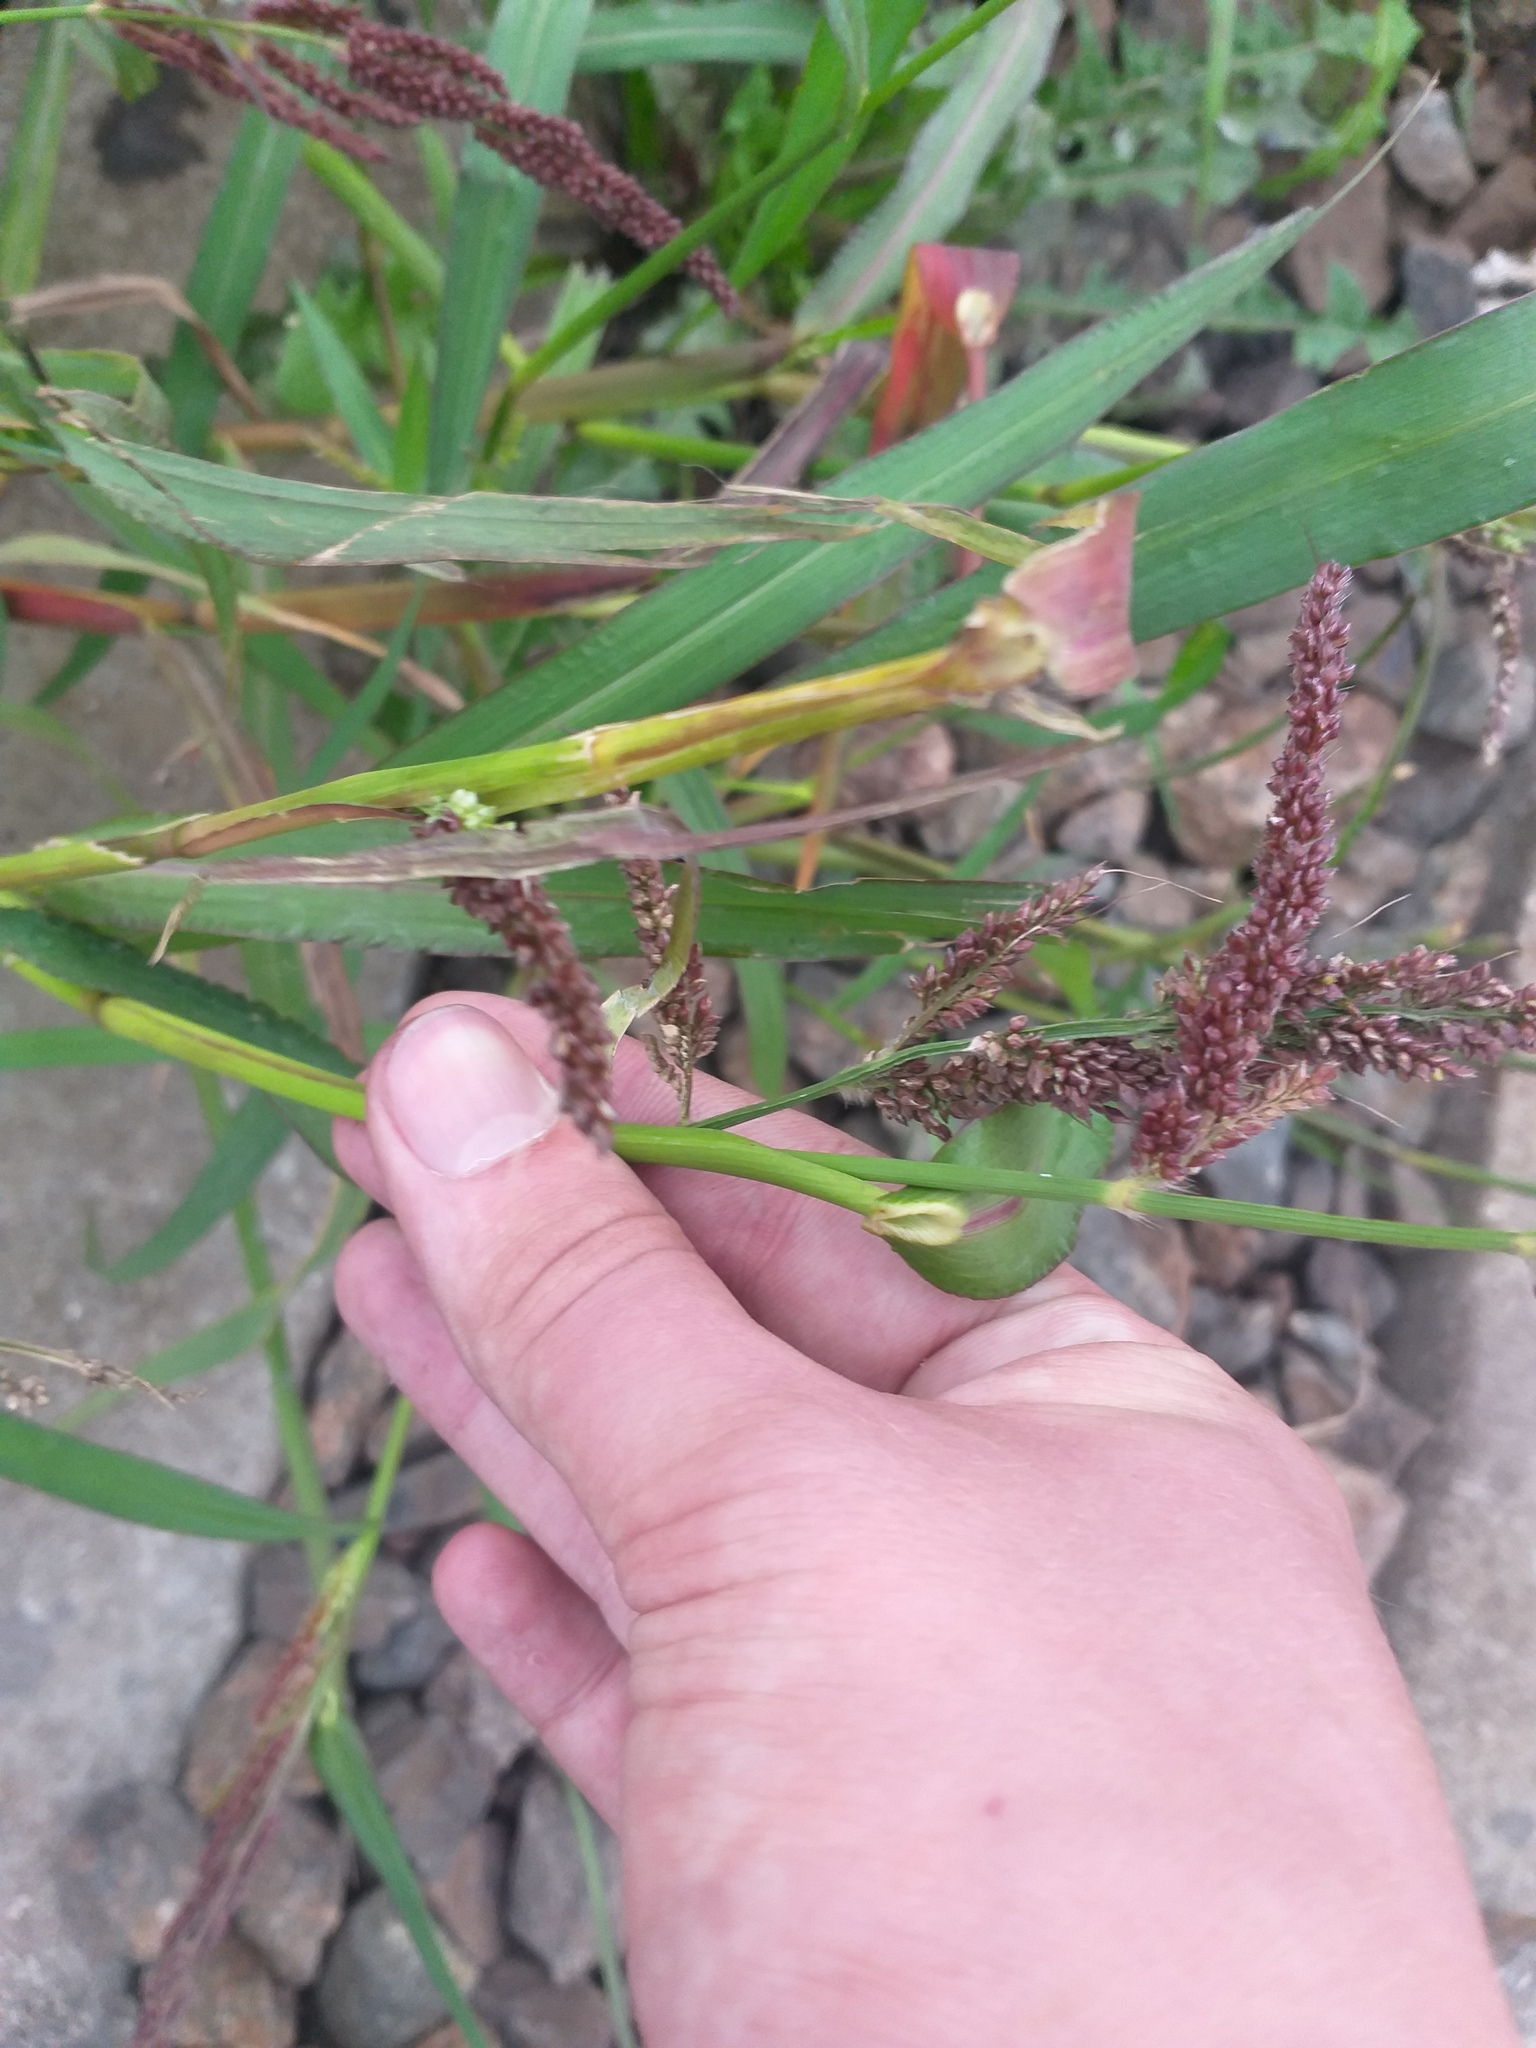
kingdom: Plantae
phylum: Tracheophyta
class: Liliopsida
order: Poales
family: Poaceae
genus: Echinochloa
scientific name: Echinochloa crus-galli
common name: Cockspur
